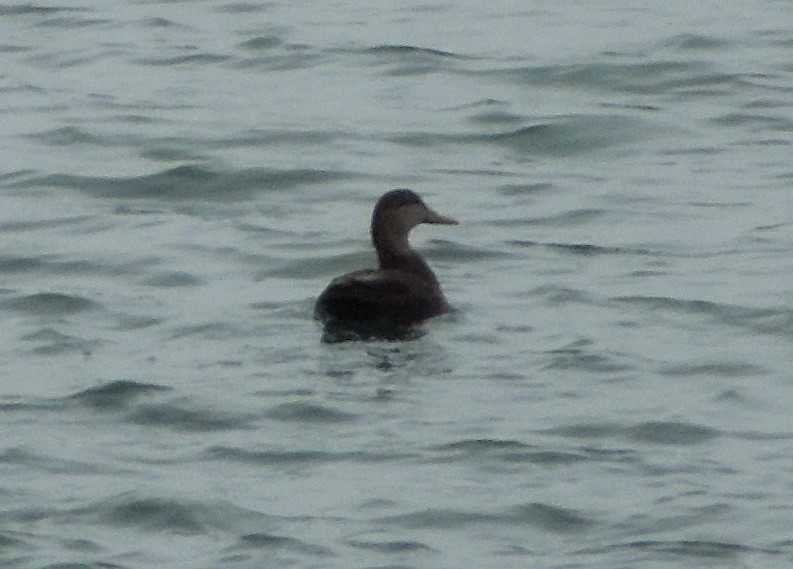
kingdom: Animalia
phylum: Chordata
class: Aves
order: Anseriformes
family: Anatidae
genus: Anas
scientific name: Anas rubripes
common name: American black duck
